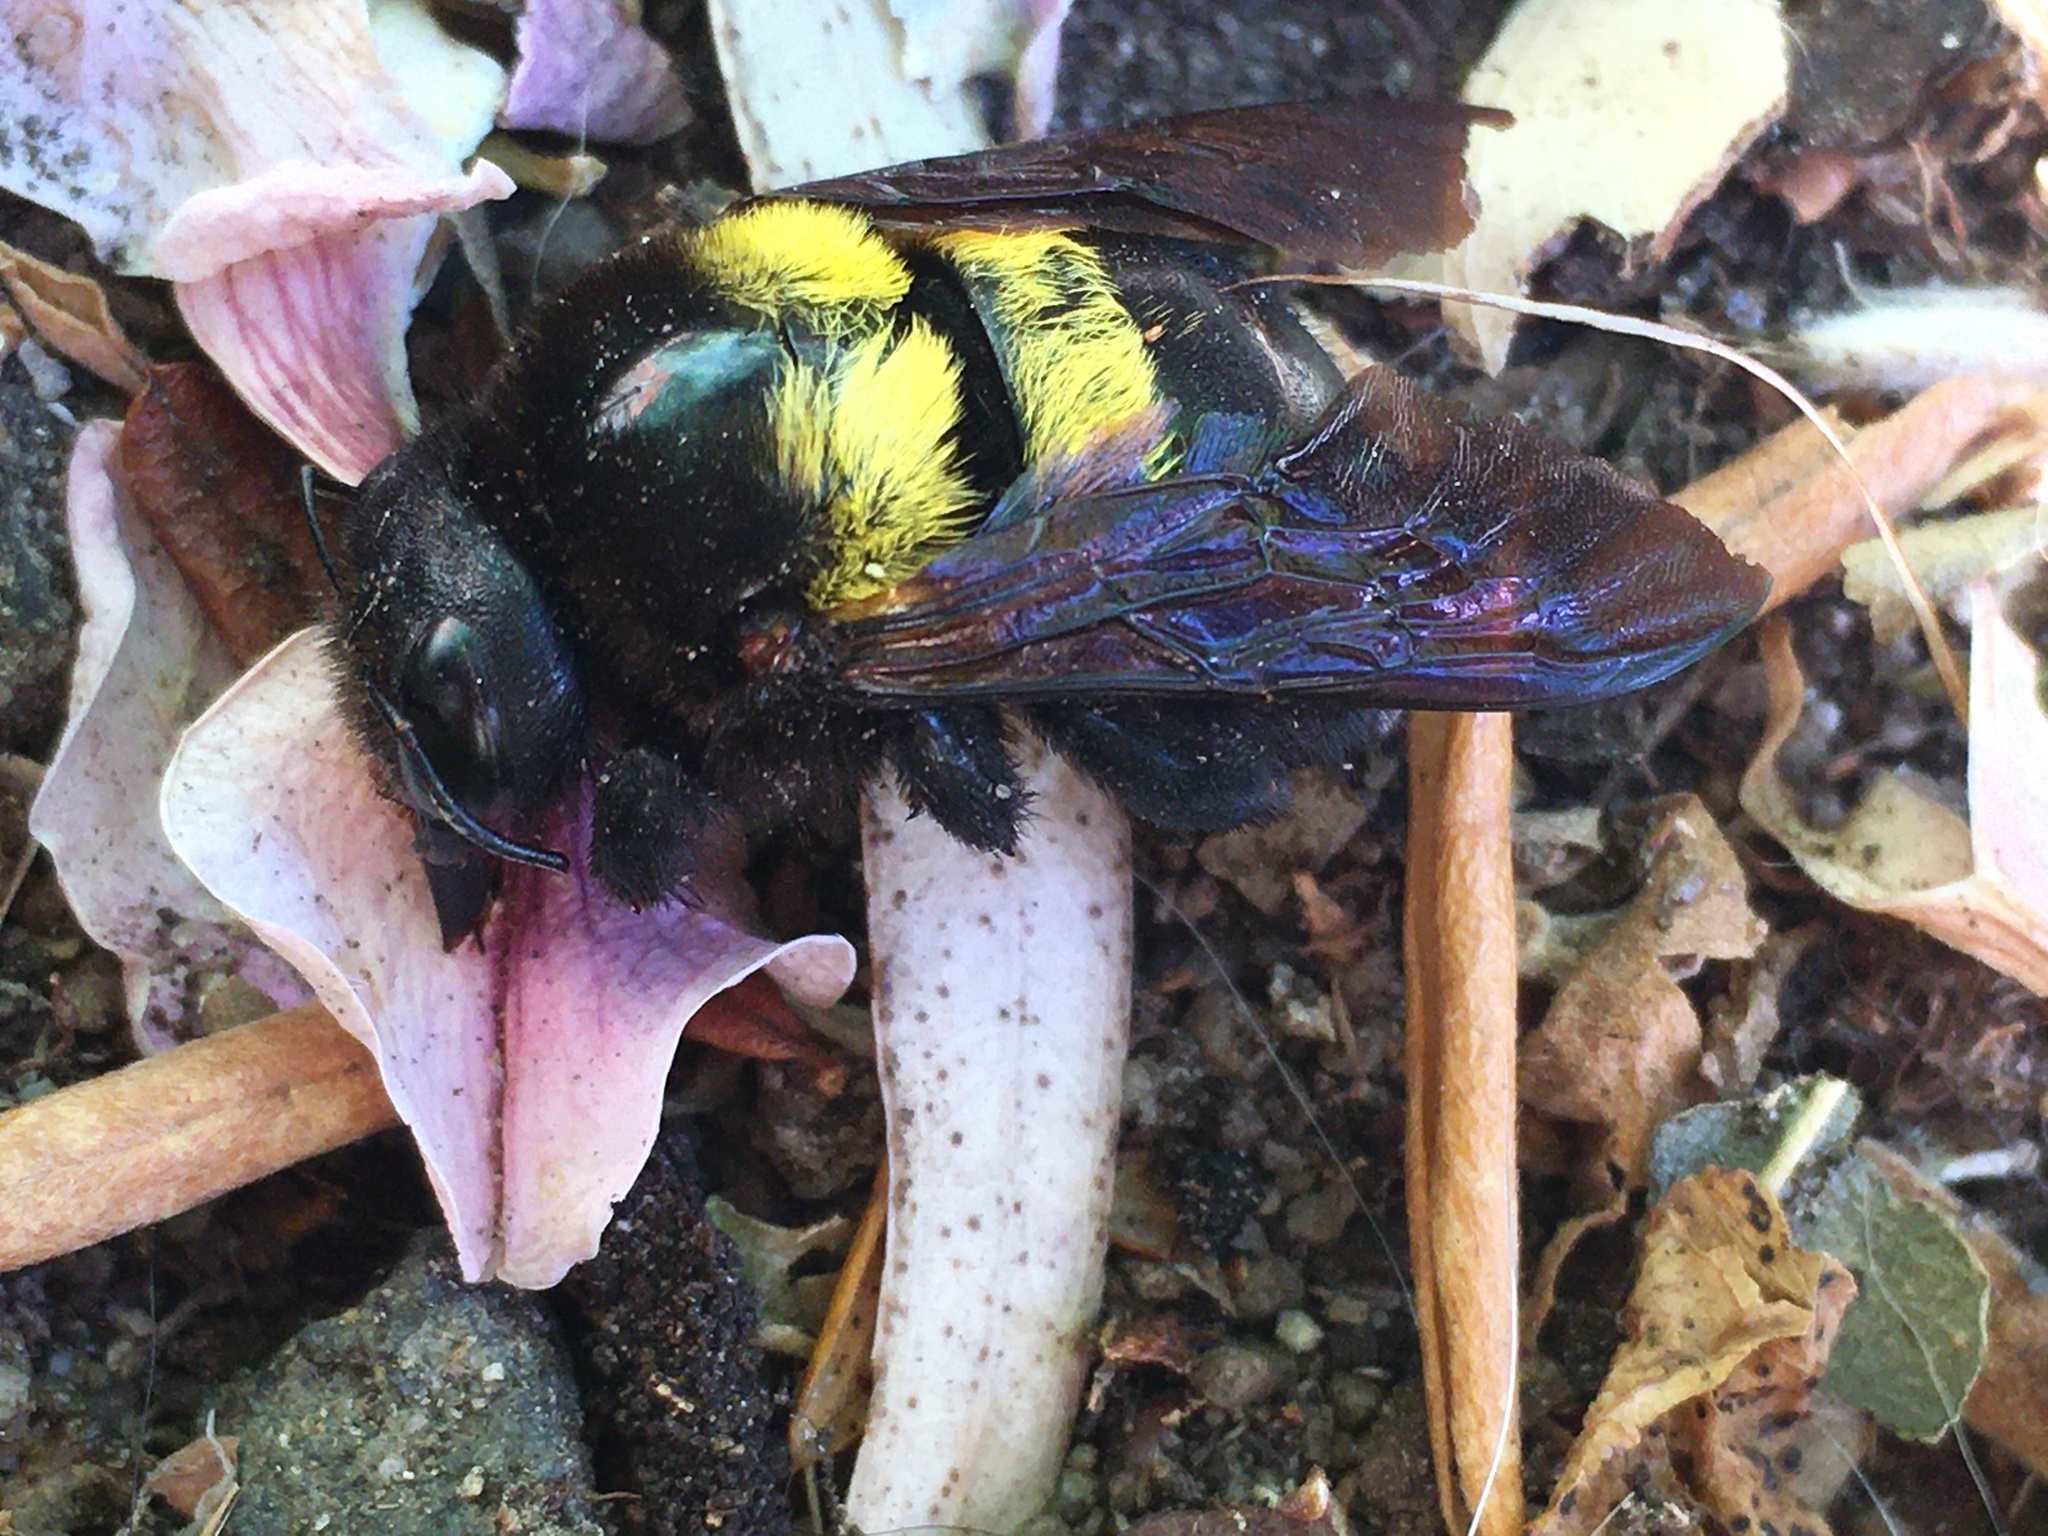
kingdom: Animalia
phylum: Arthropoda
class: Insecta
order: Hymenoptera
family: Apidae
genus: Xylocopa
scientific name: Xylocopa caffra
